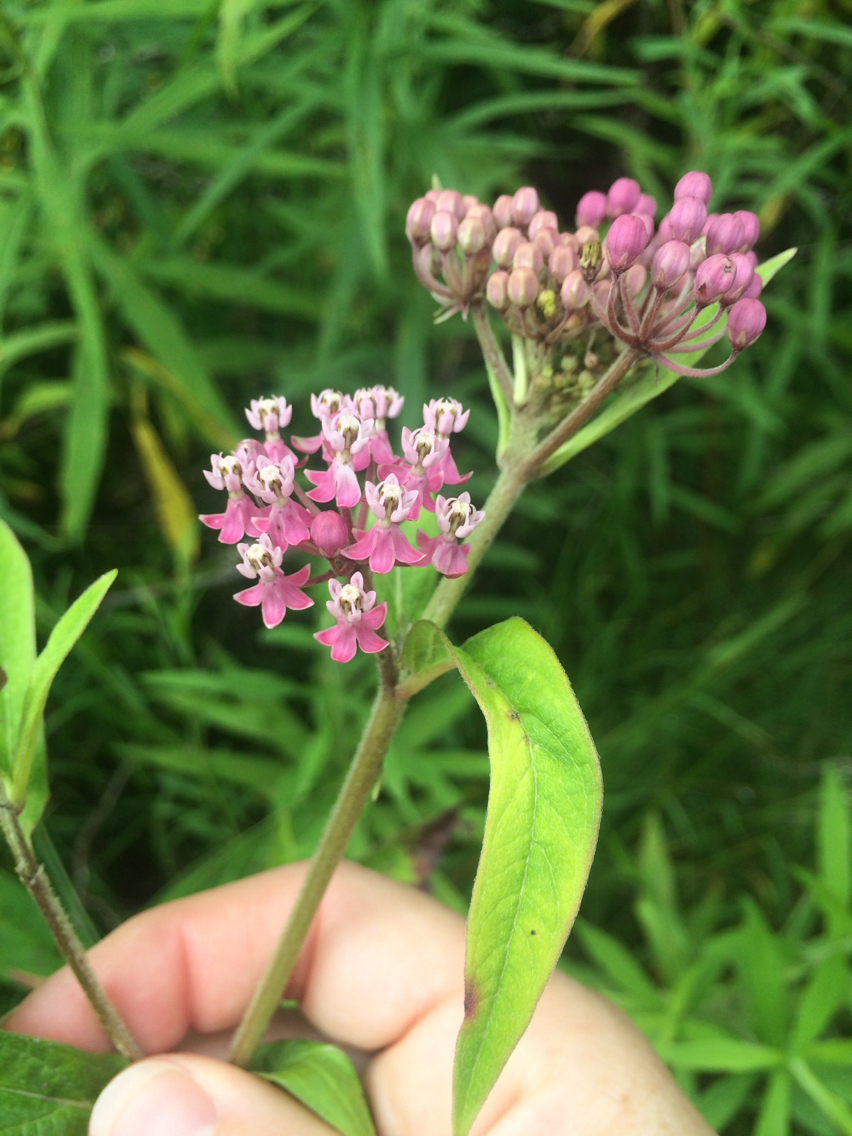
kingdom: Plantae
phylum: Tracheophyta
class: Magnoliopsida
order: Gentianales
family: Apocynaceae
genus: Asclepias
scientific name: Asclepias incarnata
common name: Swamp milkweed
